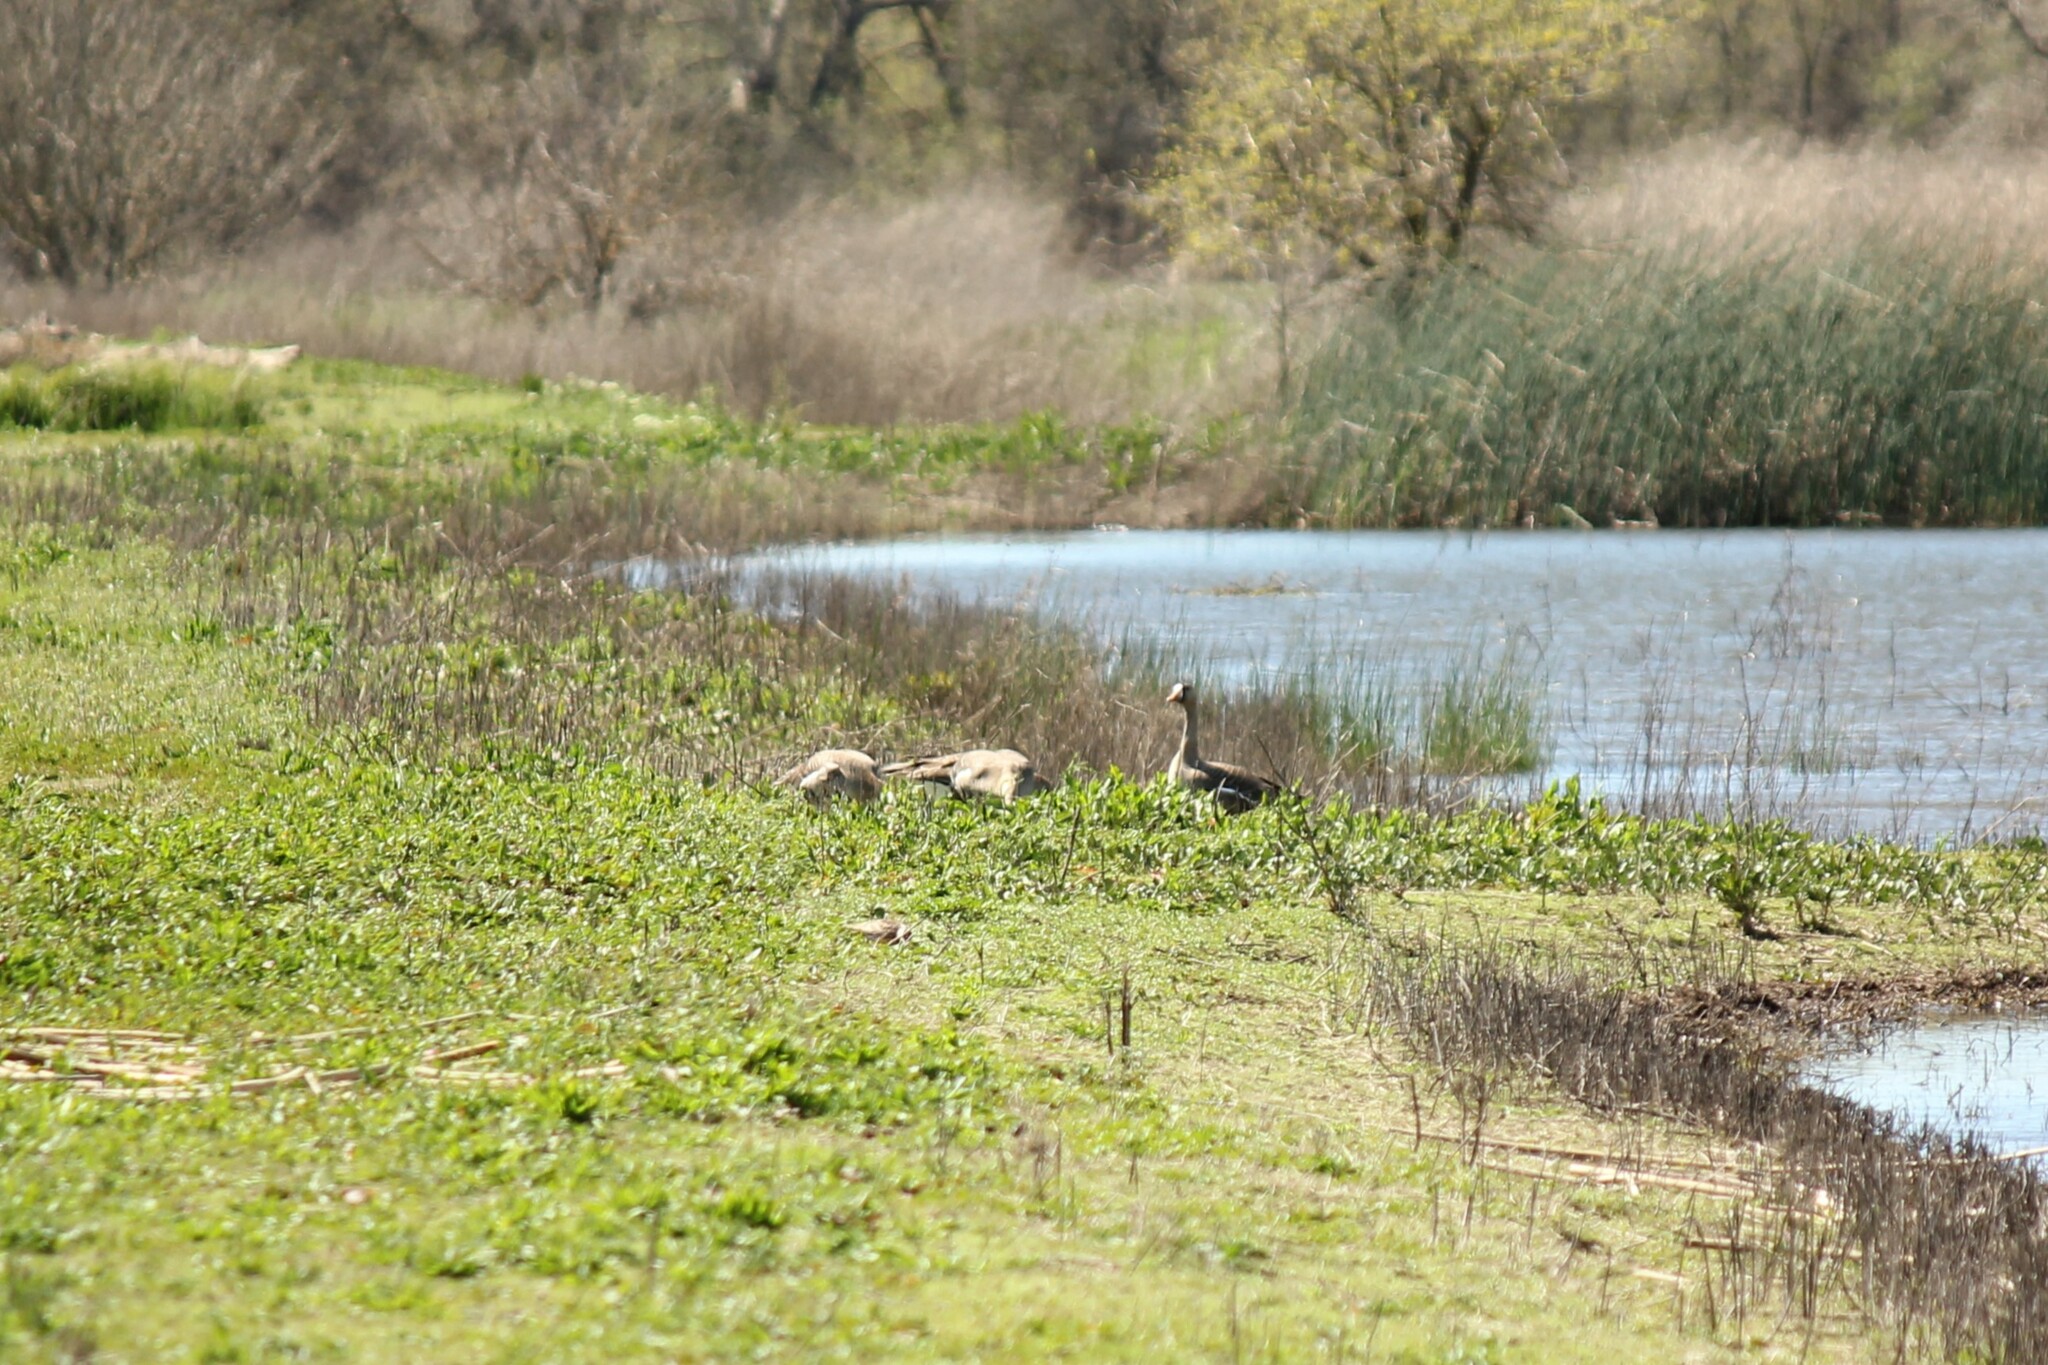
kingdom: Animalia
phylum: Chordata
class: Aves
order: Anseriformes
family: Anatidae
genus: Anser
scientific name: Anser albifrons
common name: Greater white-fronted goose
